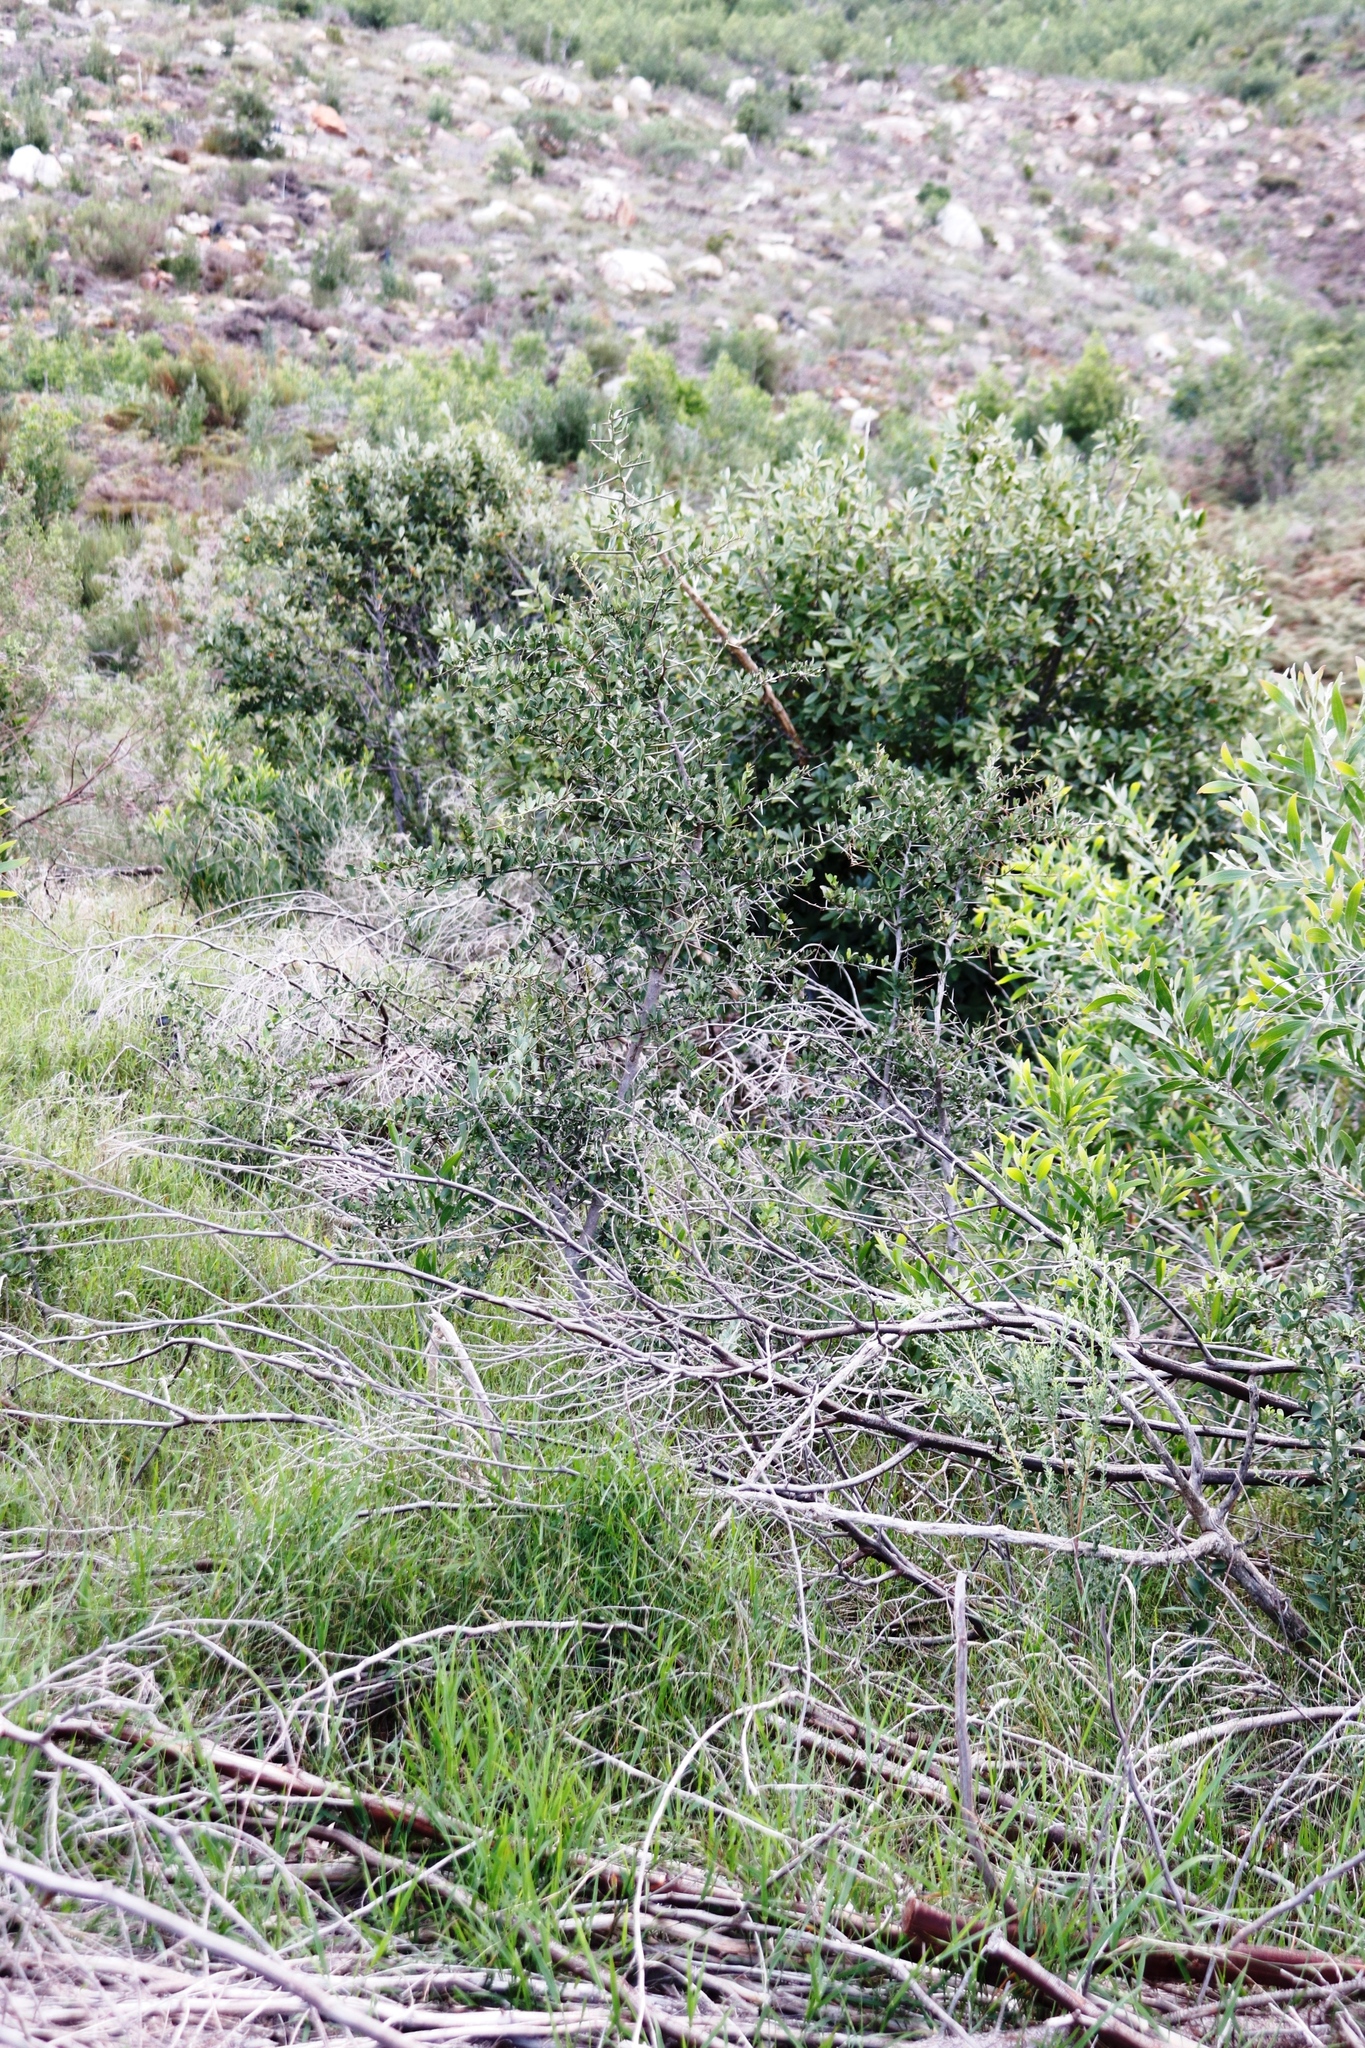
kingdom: Plantae
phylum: Tracheophyta
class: Magnoliopsida
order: Celastrales
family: Celastraceae
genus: Gymnosporia
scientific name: Gymnosporia buxifolia
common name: Common spike-thorn
